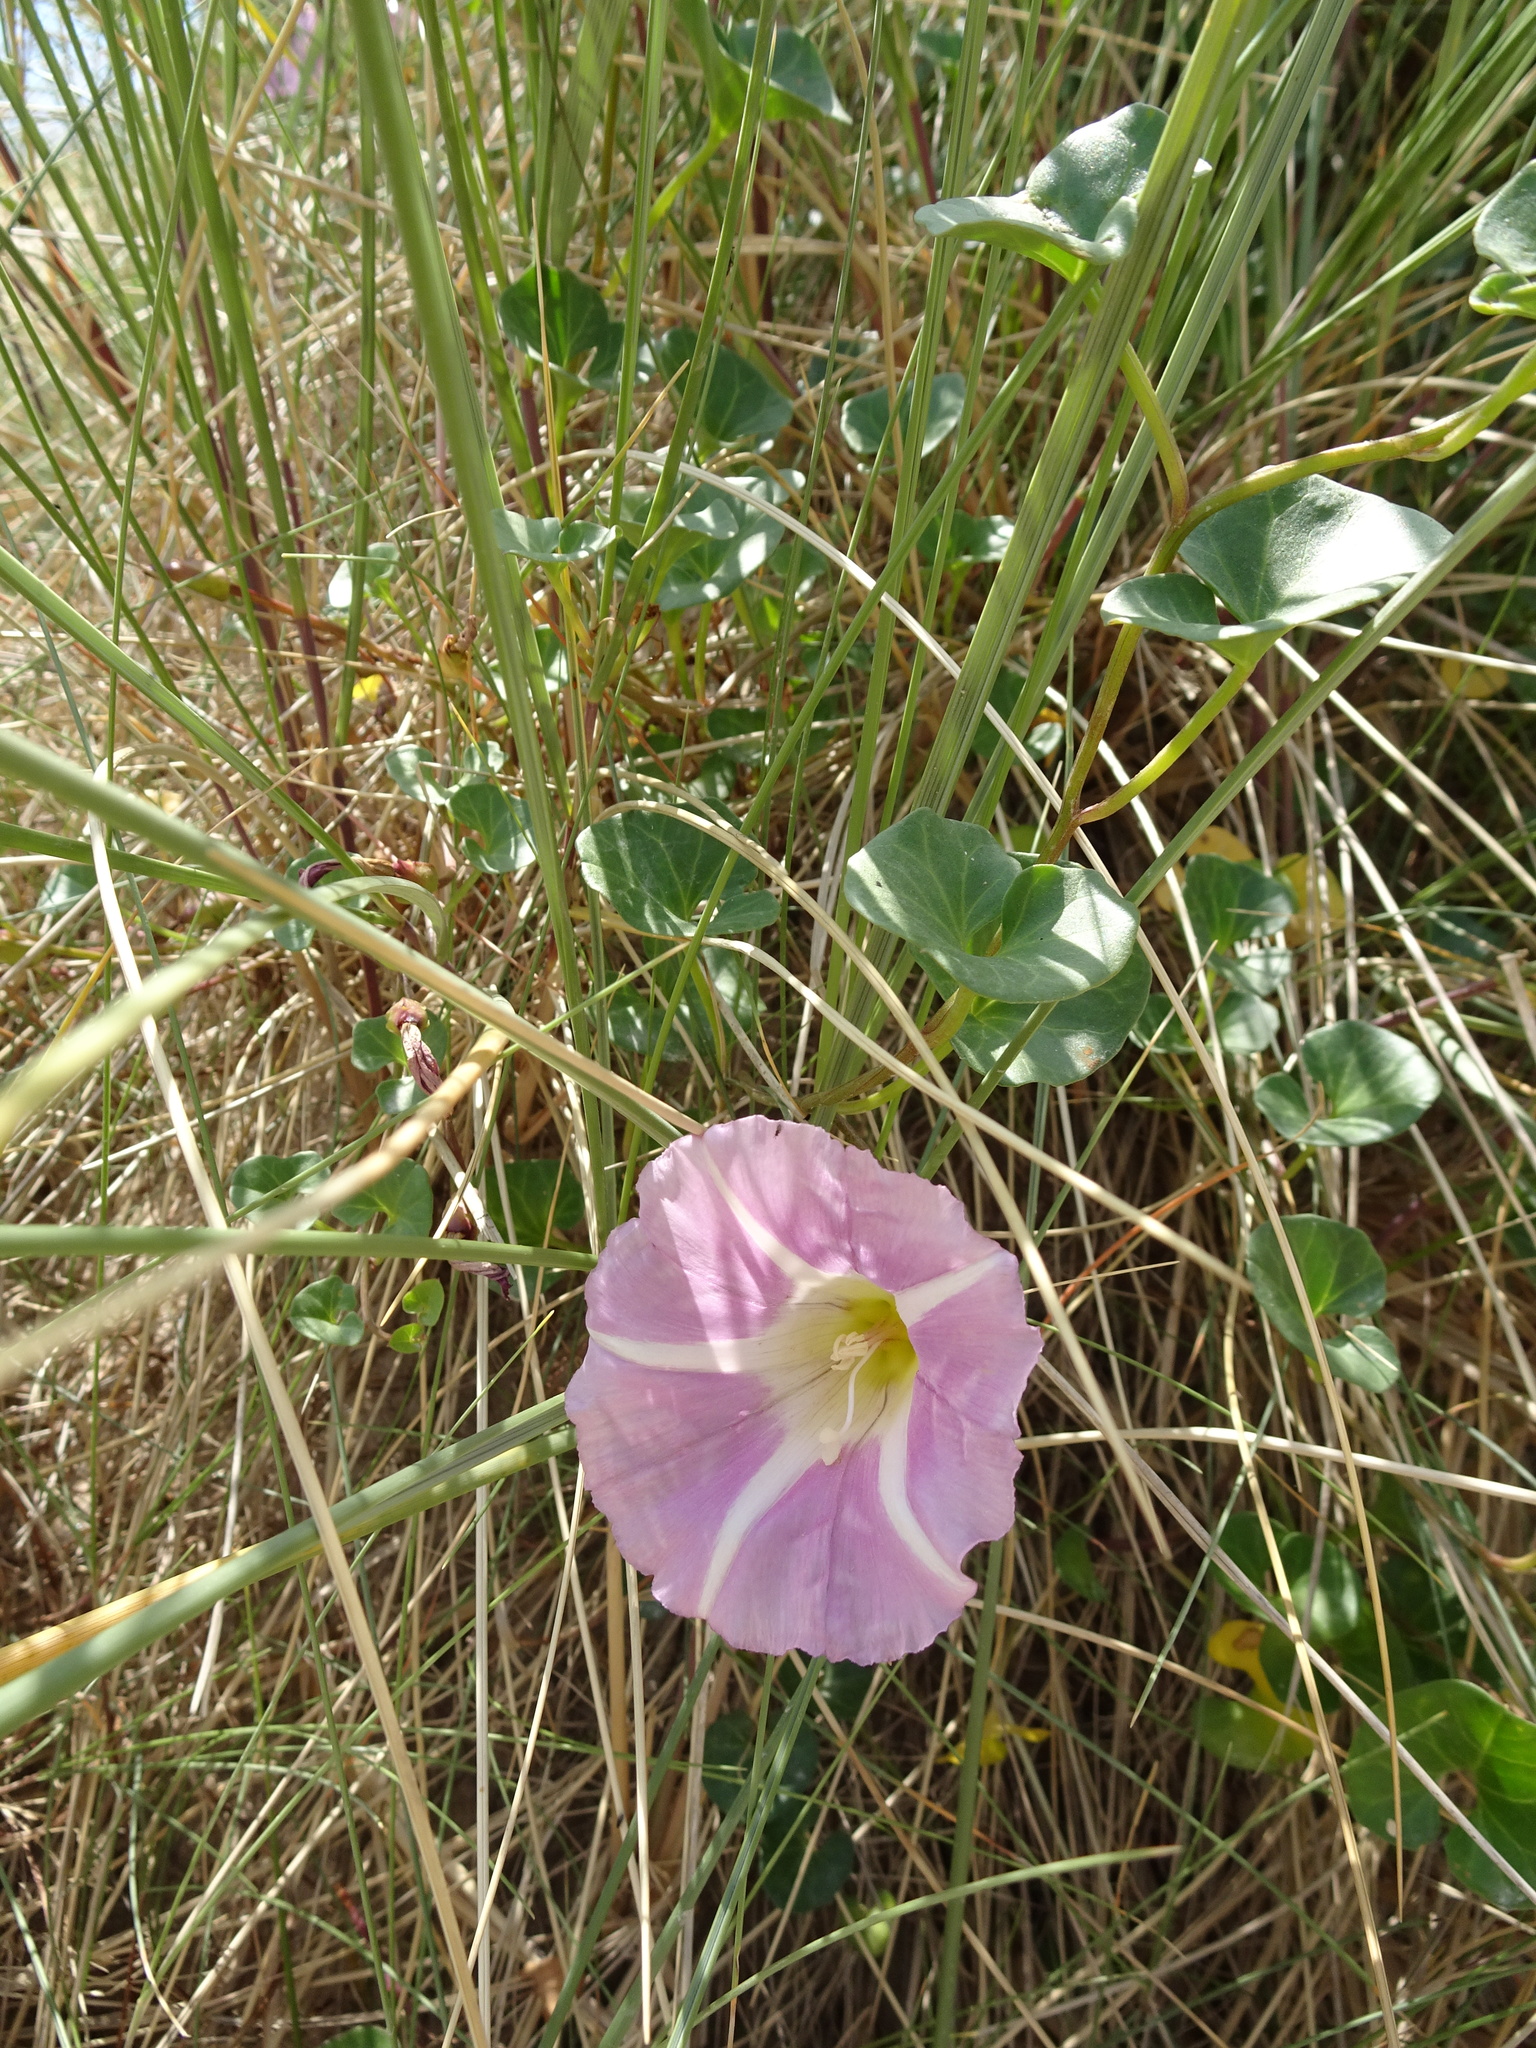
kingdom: Plantae
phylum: Tracheophyta
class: Magnoliopsida
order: Solanales
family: Convolvulaceae
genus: Calystegia
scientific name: Calystegia soldanella
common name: Sea bindweed
